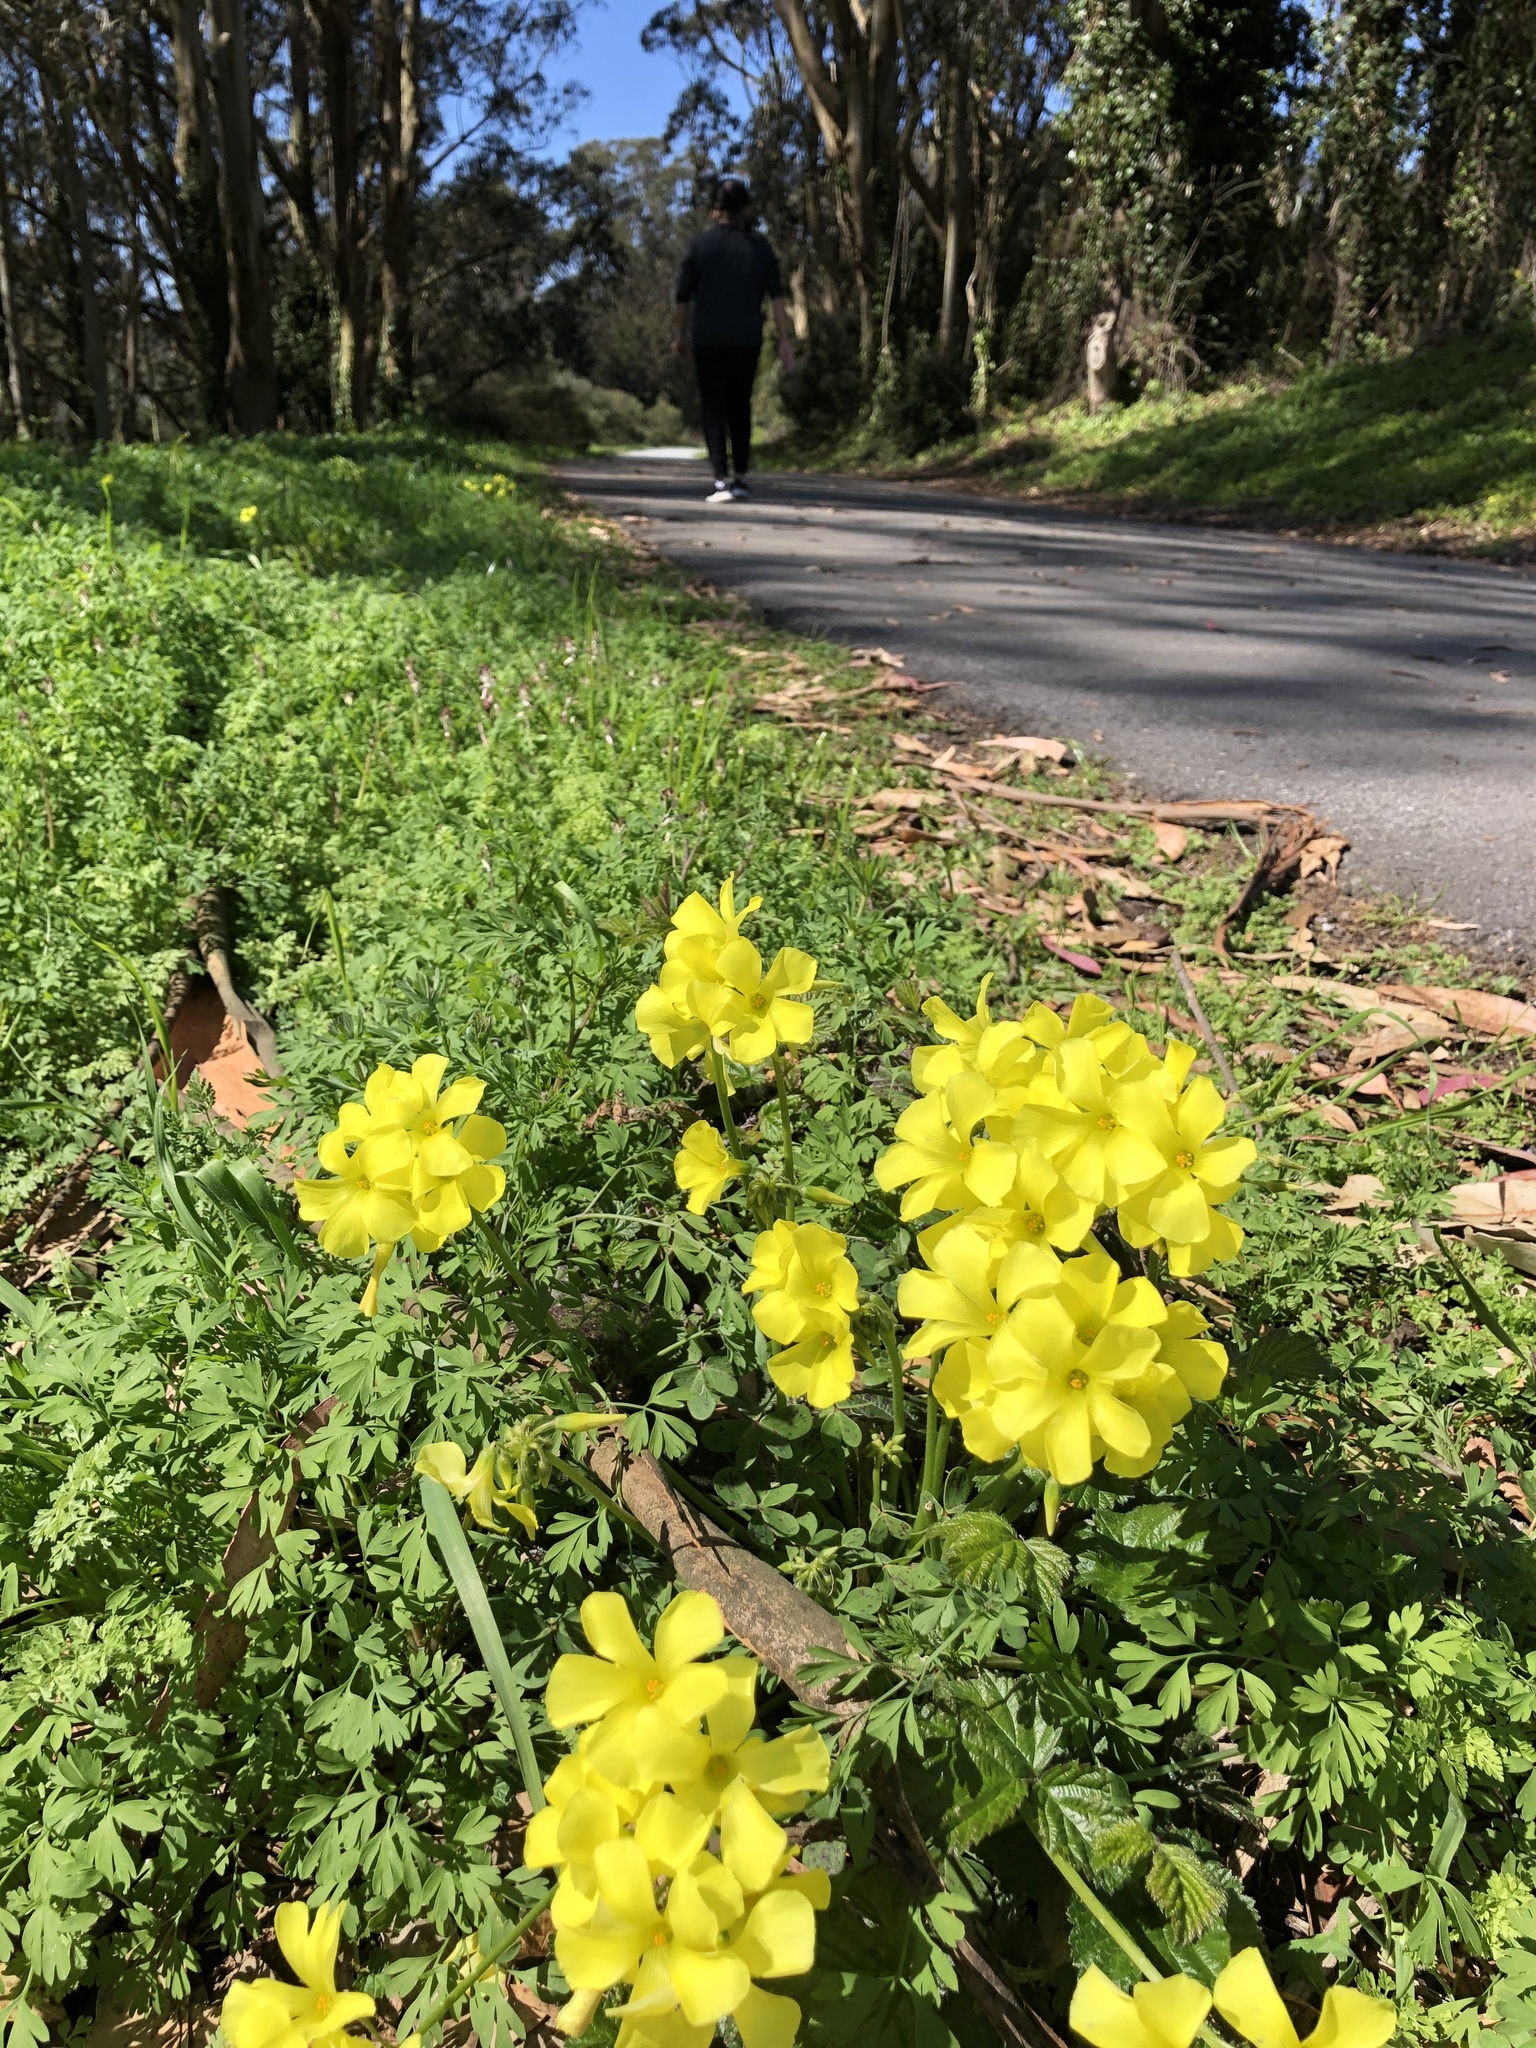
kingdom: Plantae
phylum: Tracheophyta
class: Magnoliopsida
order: Oxalidales
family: Oxalidaceae
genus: Oxalis
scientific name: Oxalis pes-caprae
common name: Bermuda-buttercup
